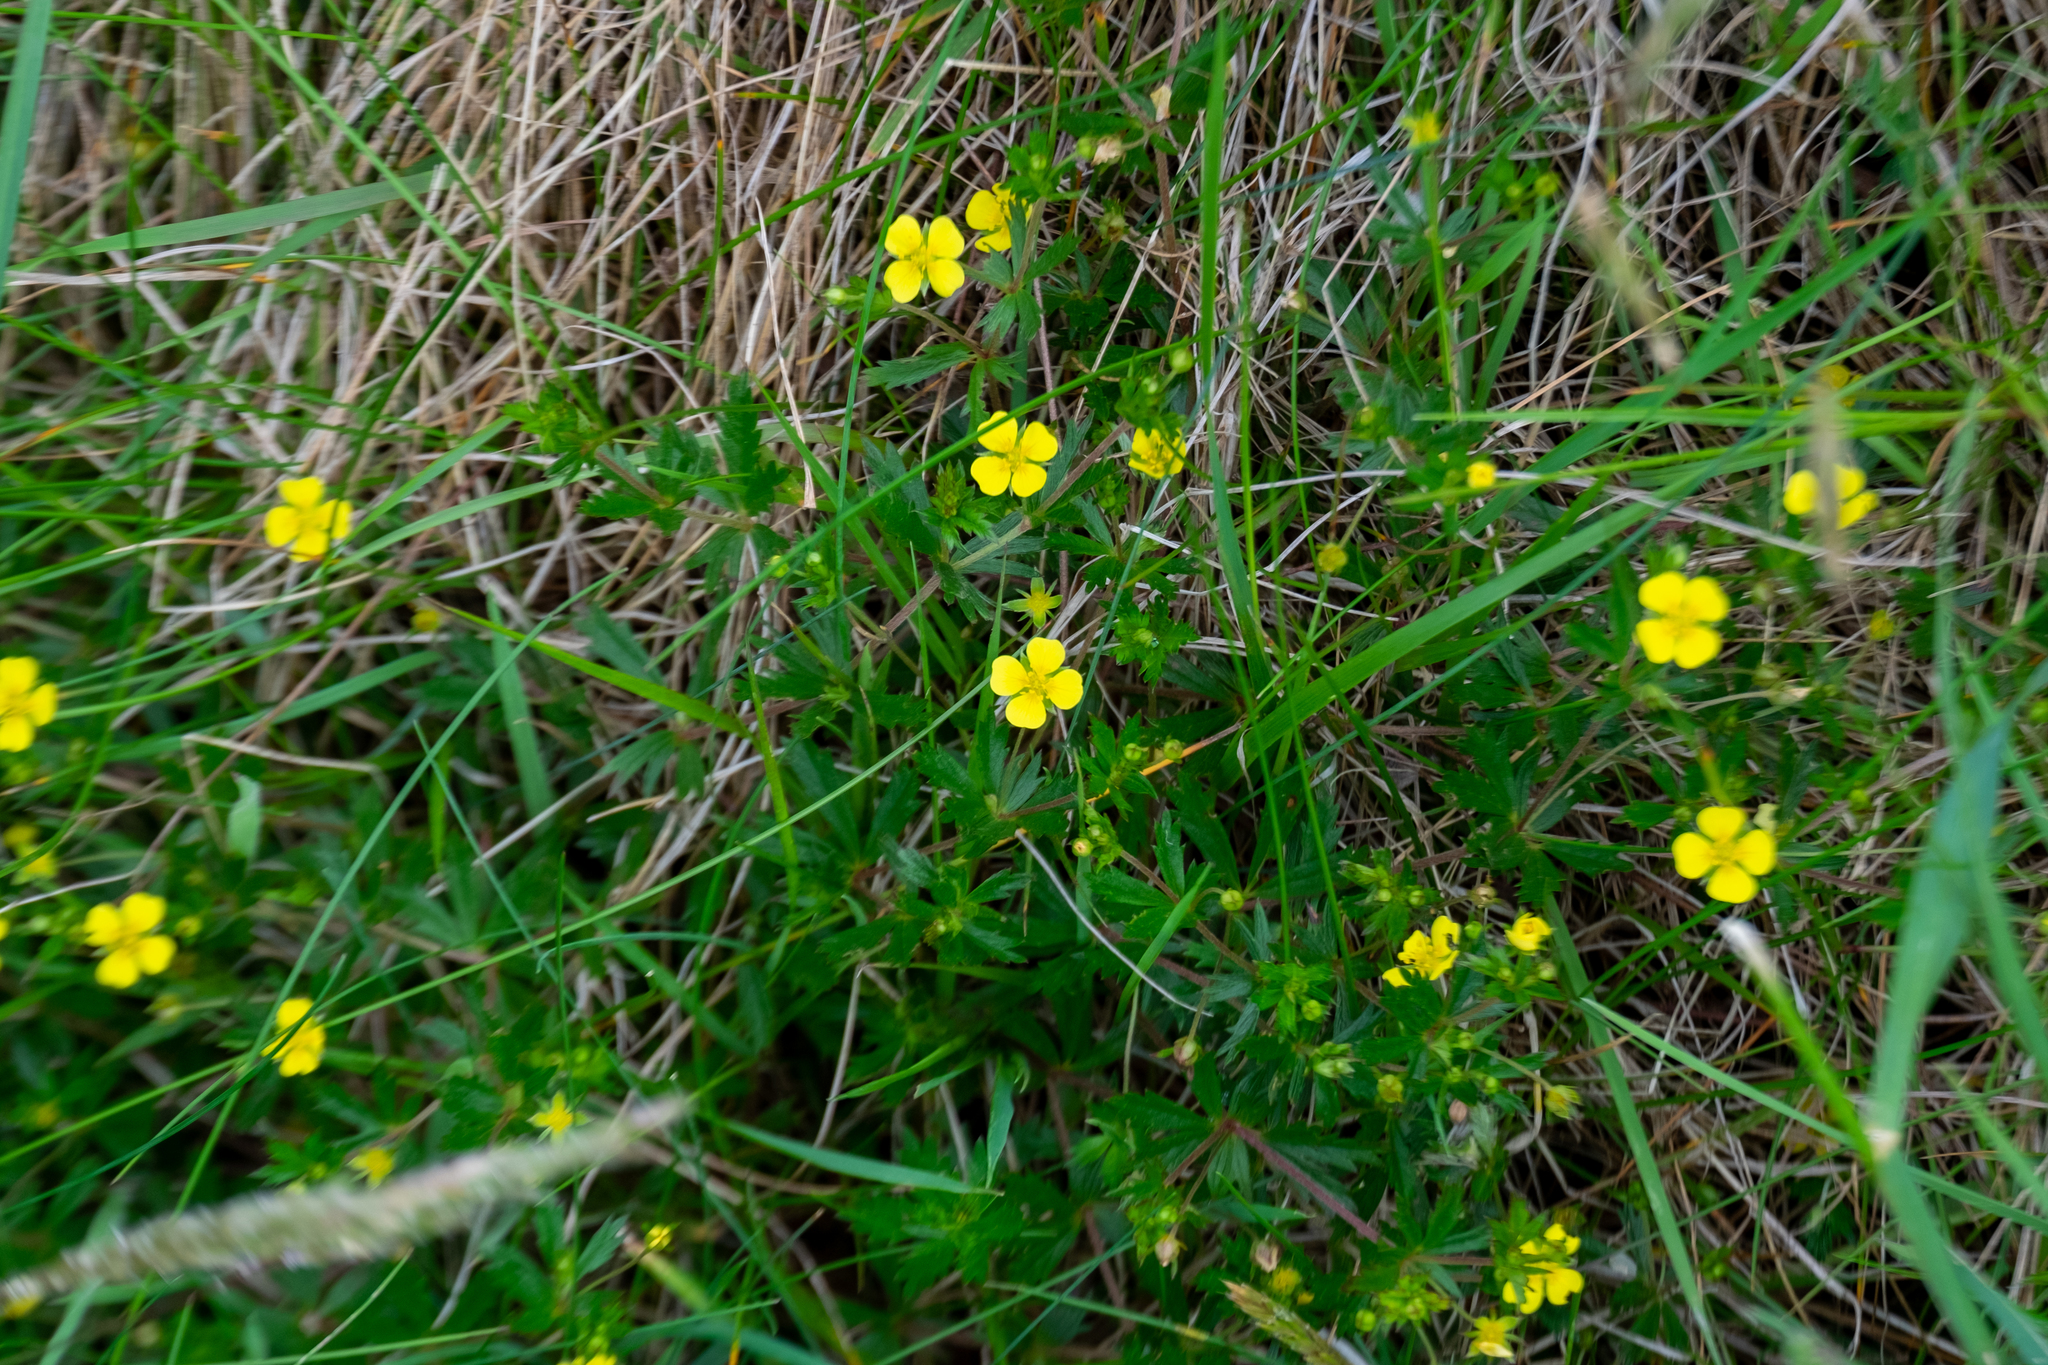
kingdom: Plantae
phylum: Tracheophyta
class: Magnoliopsida
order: Rosales
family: Rosaceae
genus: Potentilla
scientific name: Potentilla erecta
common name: Tormentil
